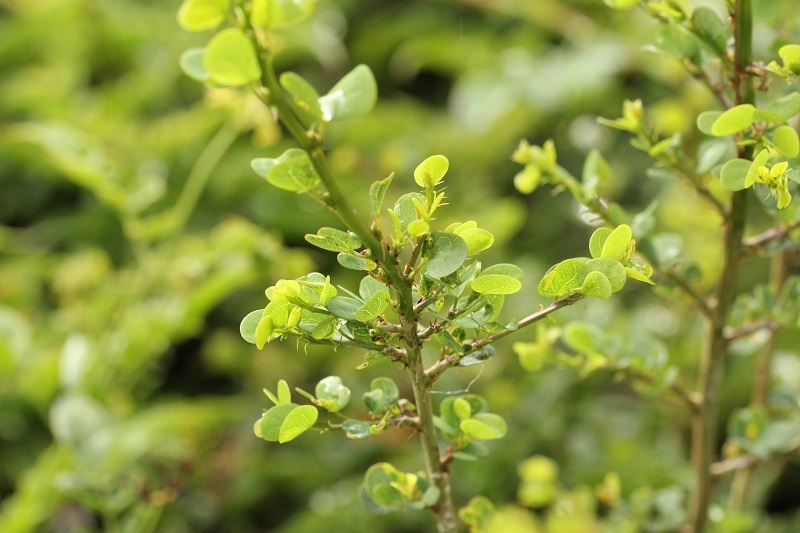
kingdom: Plantae
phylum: Tracheophyta
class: Magnoliopsida
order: Fabales
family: Fabaceae
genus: Bauhinia
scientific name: Bauhinia natalensis
